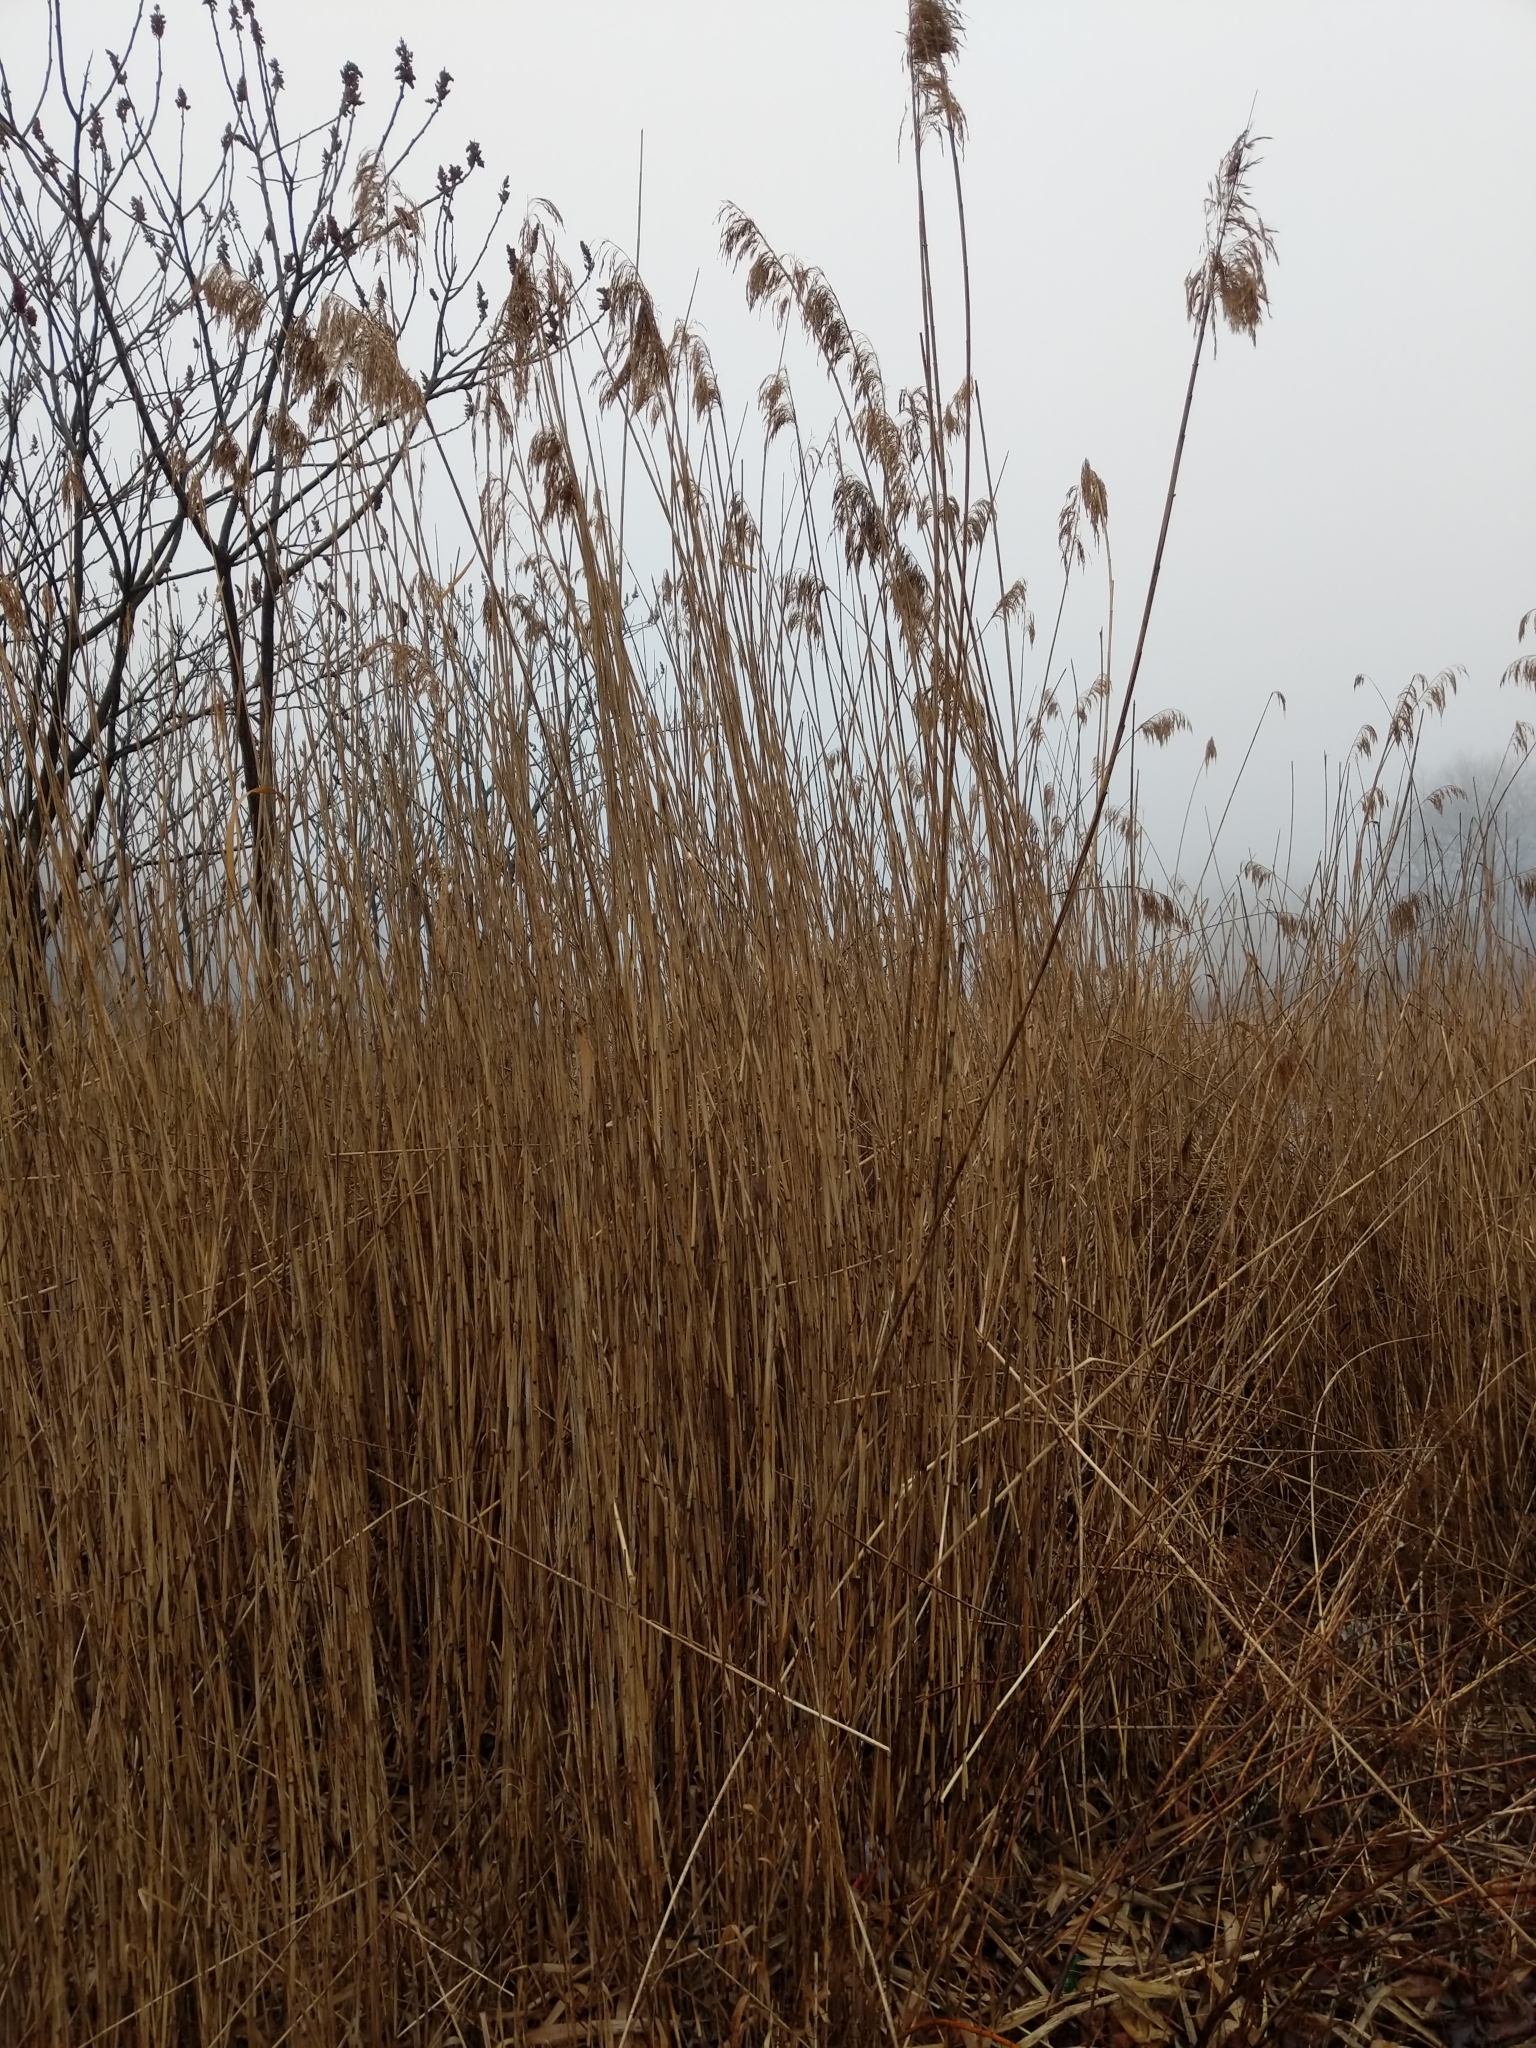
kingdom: Plantae
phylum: Tracheophyta
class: Liliopsida
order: Poales
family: Poaceae
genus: Phragmites
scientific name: Phragmites australis
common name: Common reed
